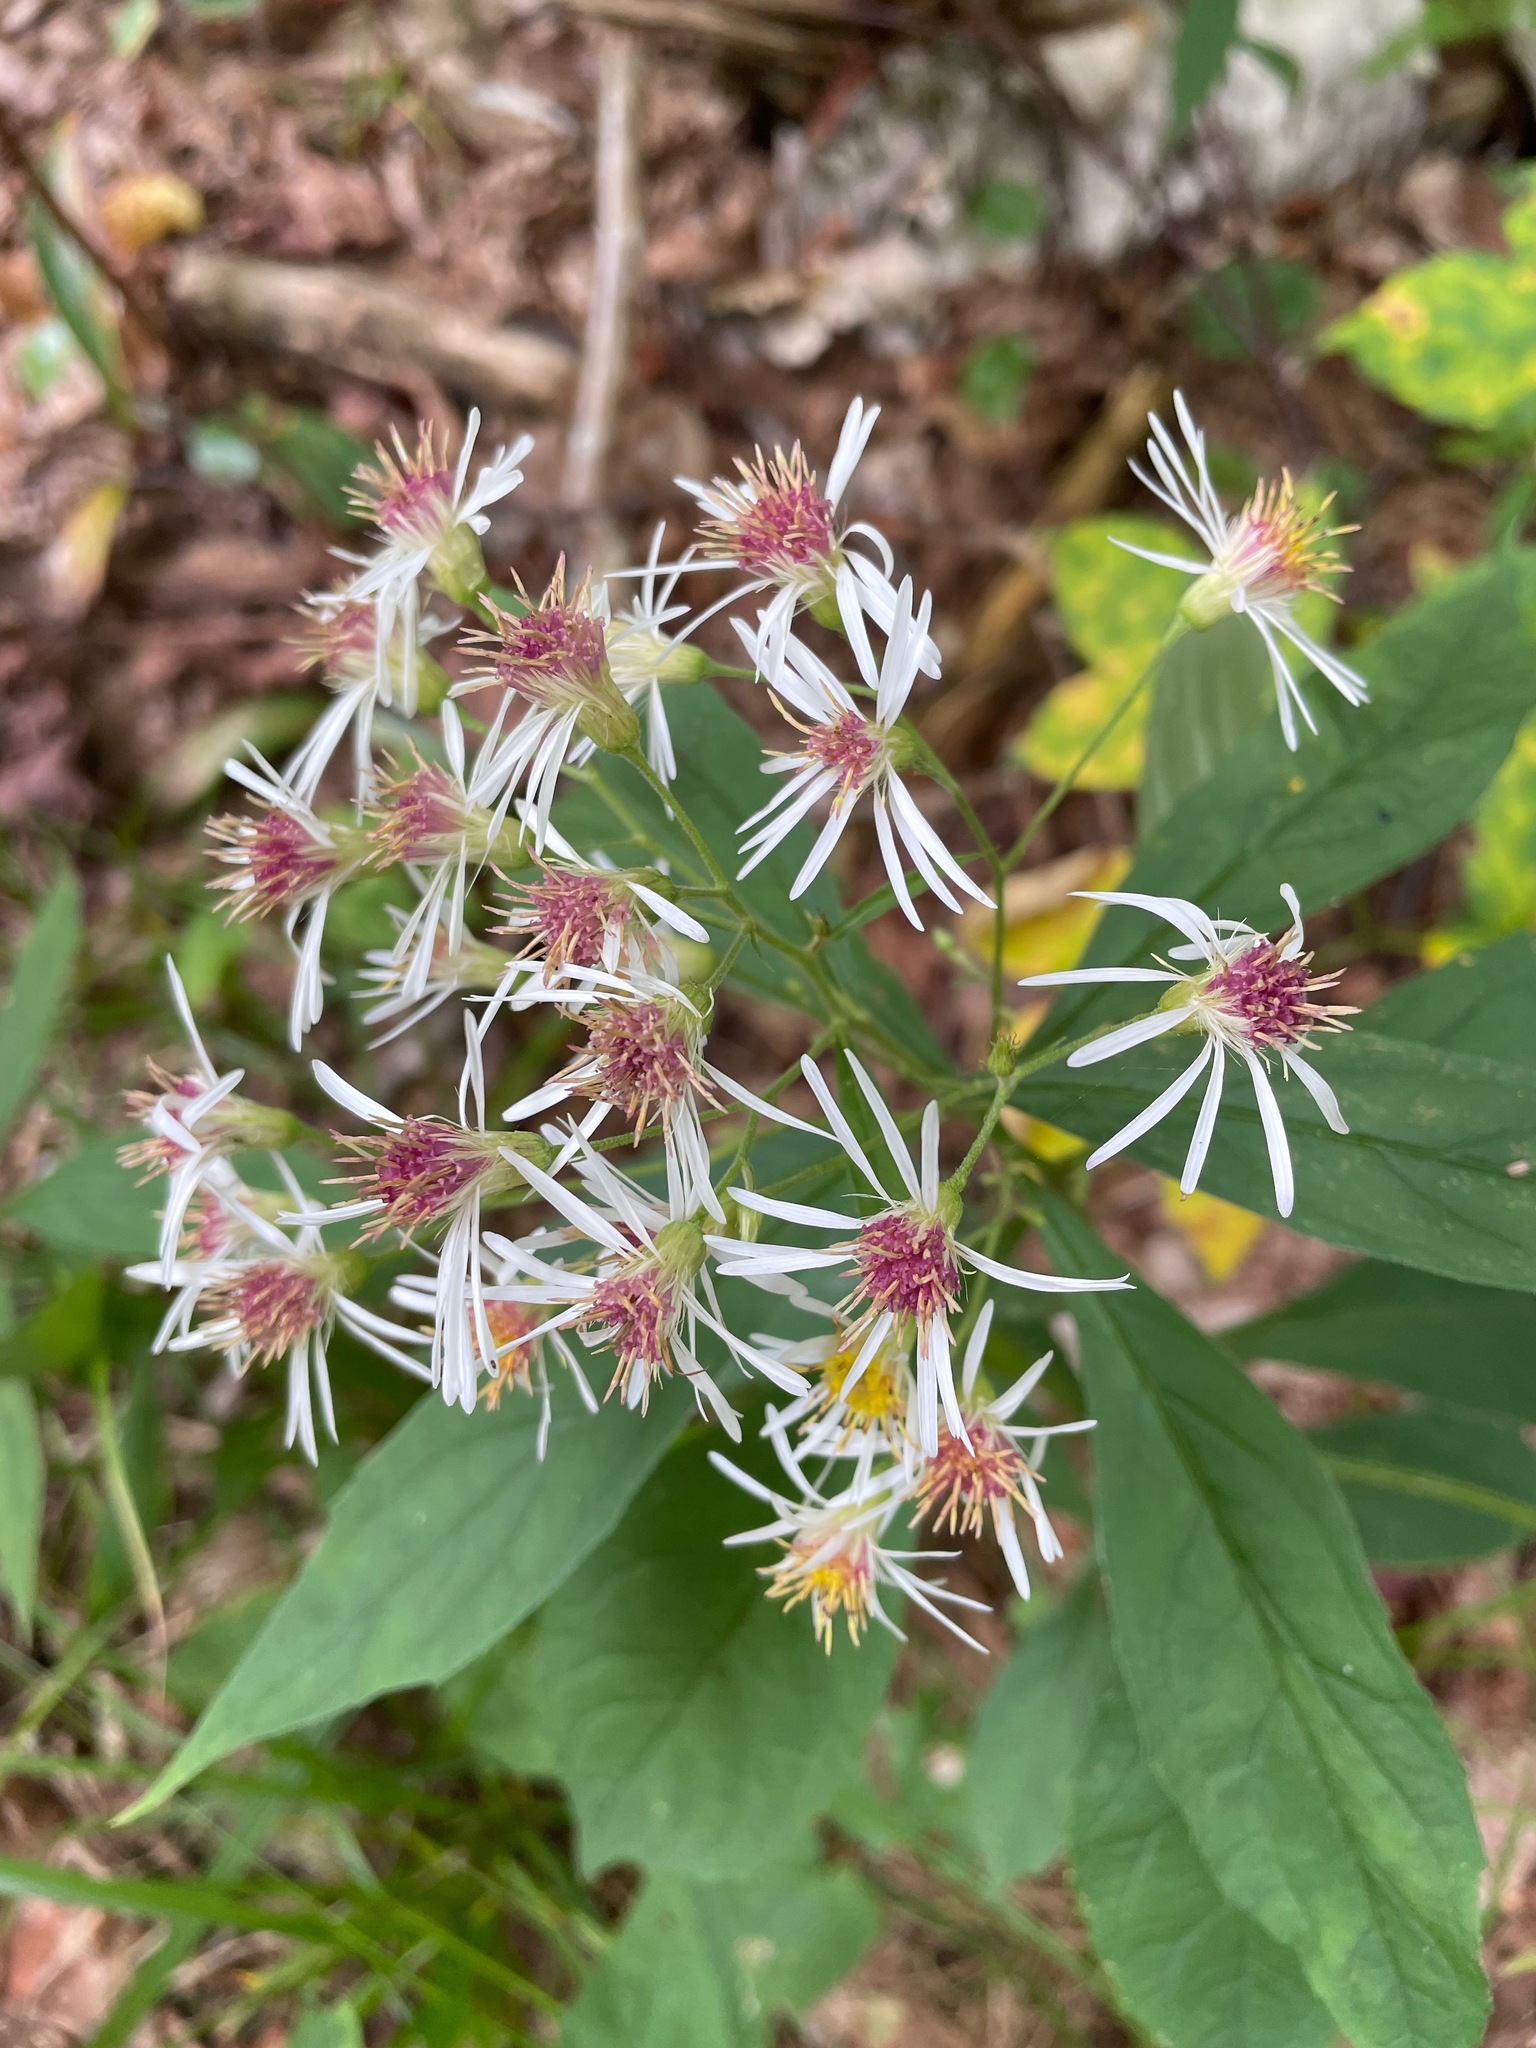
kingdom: Plantae
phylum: Tracheophyta
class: Magnoliopsida
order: Asterales
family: Asteraceae
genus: Oclemena
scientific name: Oclemena acuminata
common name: Mountain aster
